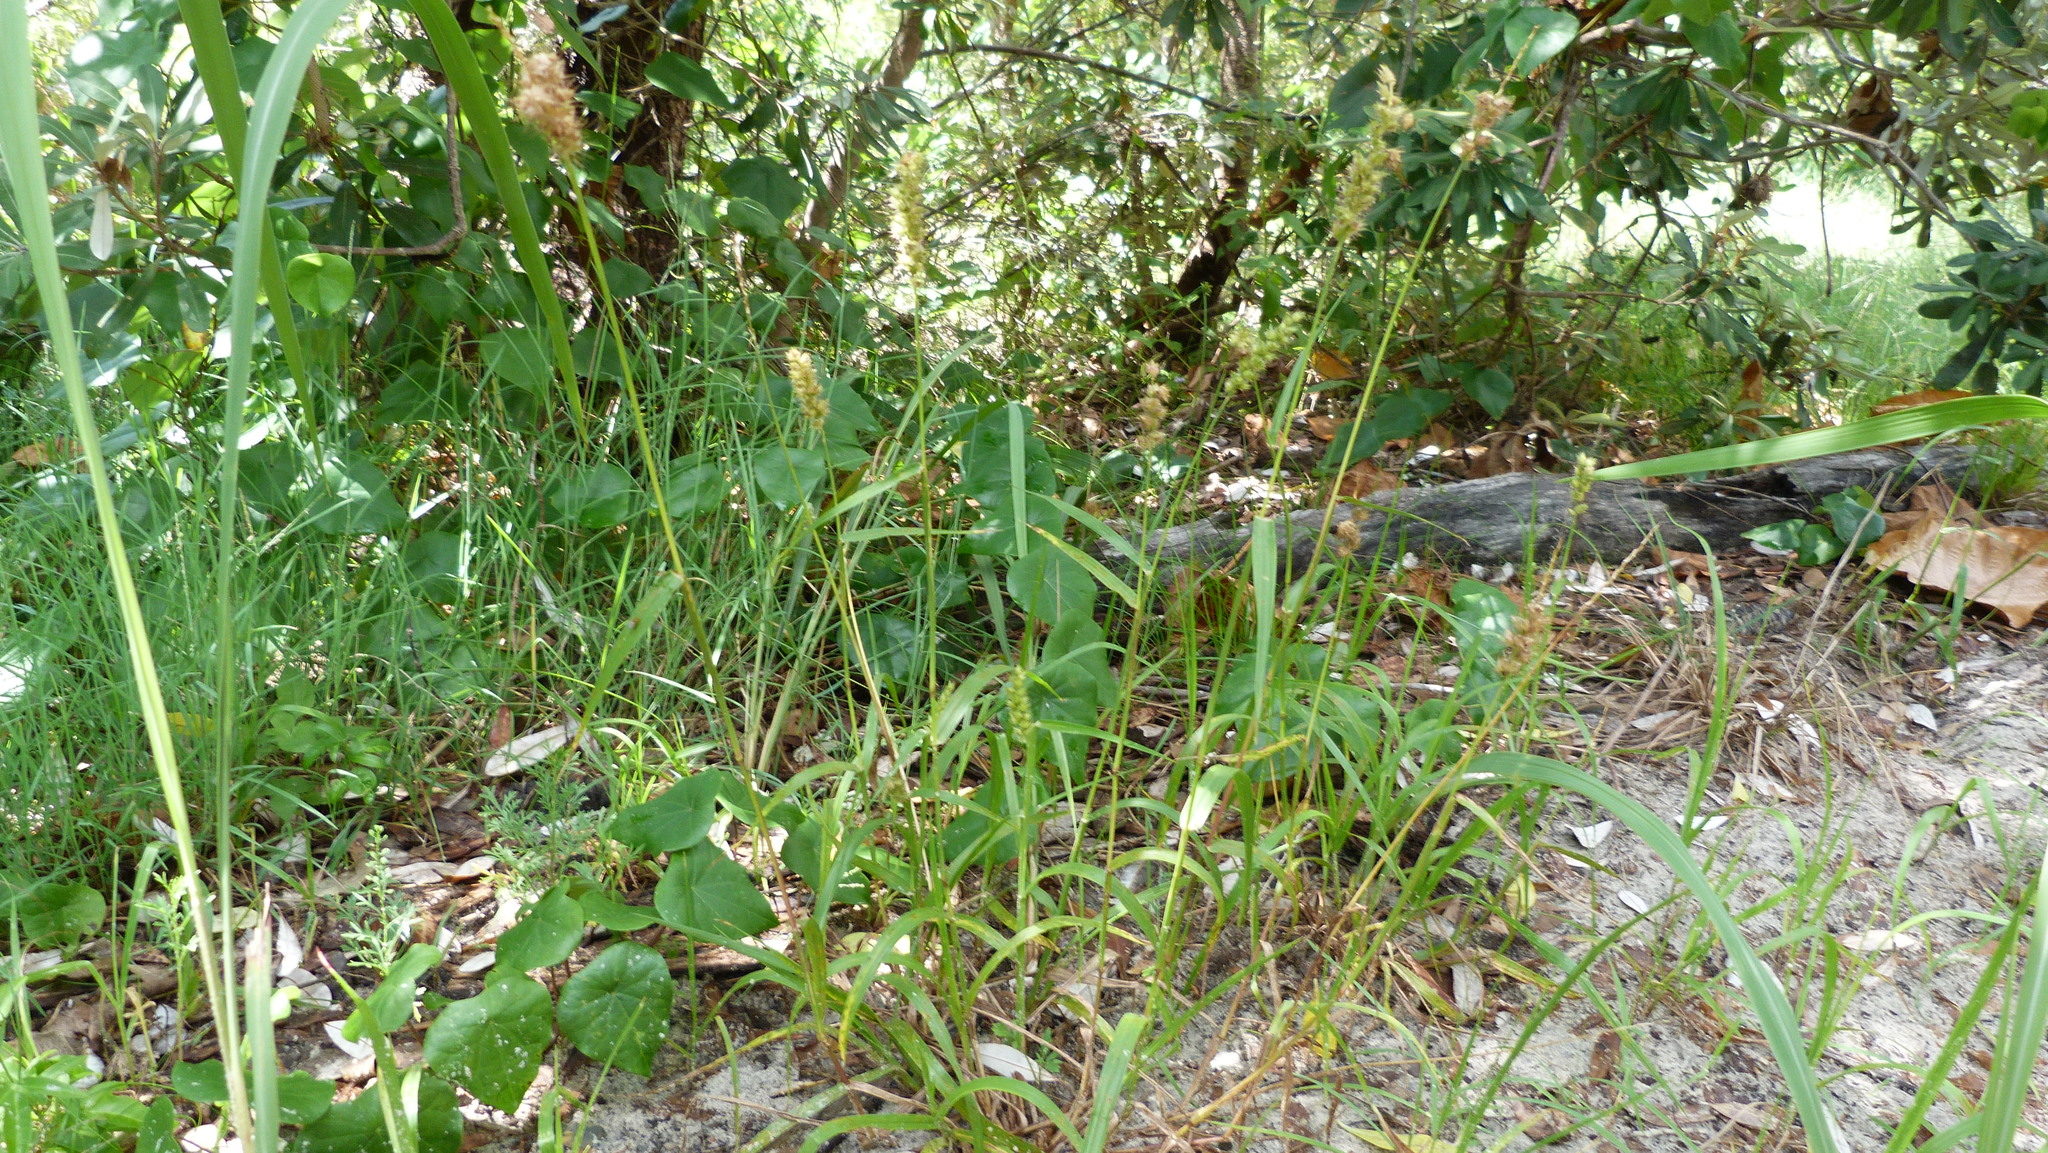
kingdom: Plantae
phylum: Tracheophyta
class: Liliopsida
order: Poales
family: Poaceae
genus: Cenchrus
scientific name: Cenchrus echinatus
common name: Southern sandbur
